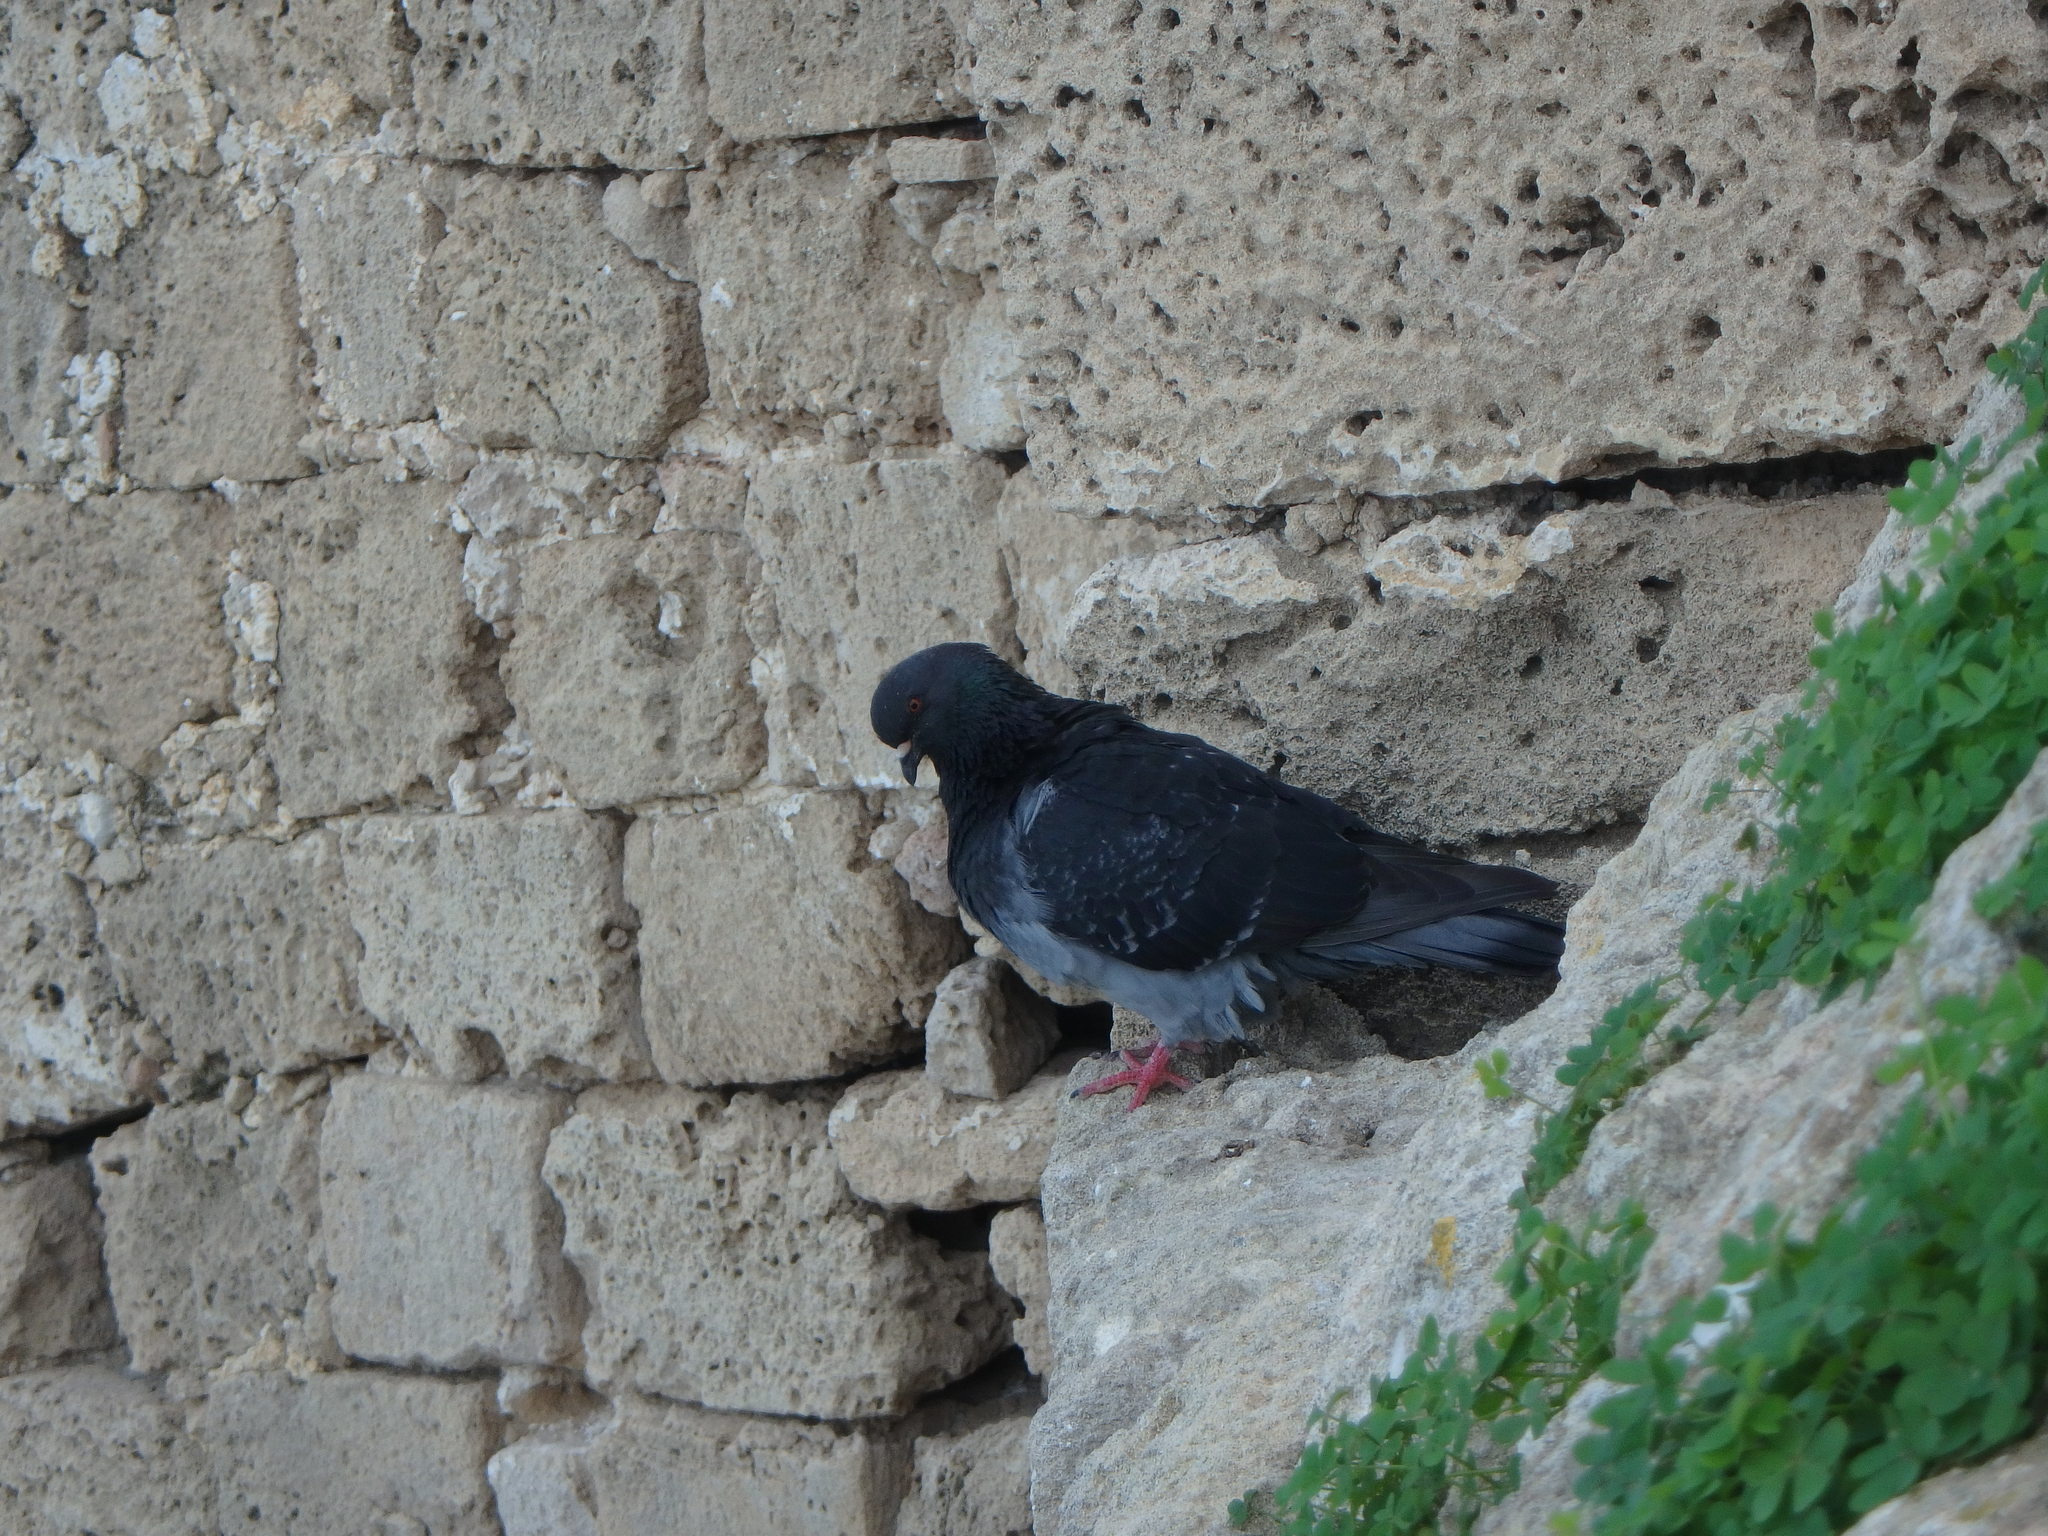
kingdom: Animalia
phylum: Chordata
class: Aves
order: Columbiformes
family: Columbidae
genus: Columba
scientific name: Columba livia
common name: Rock pigeon
